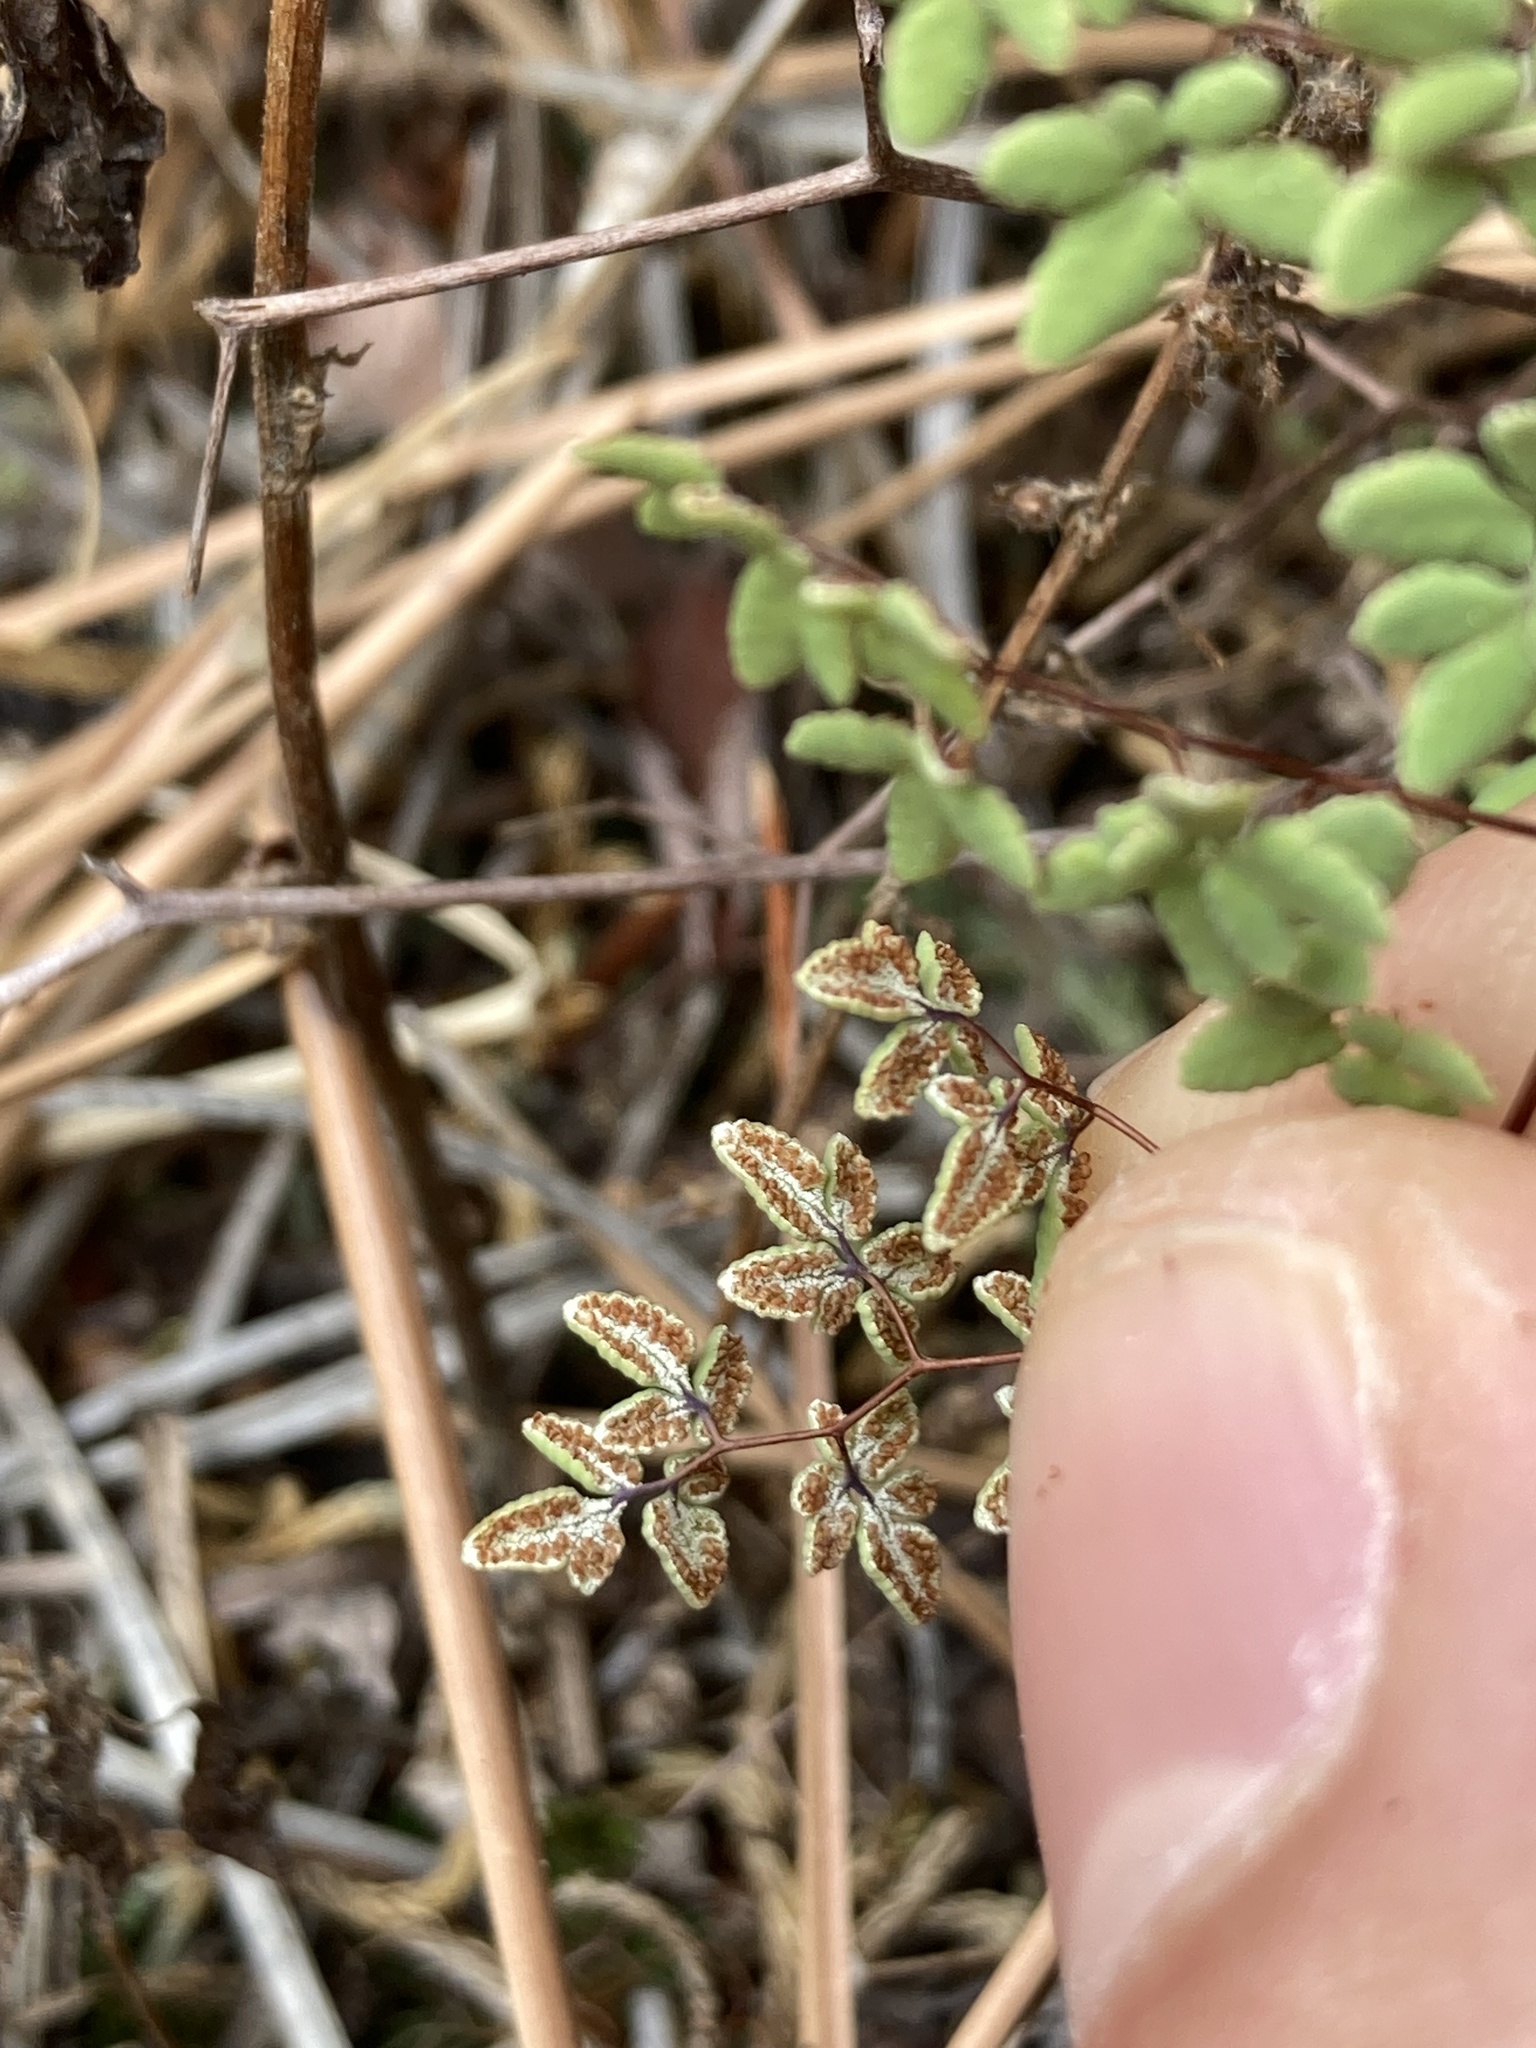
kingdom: Plantae
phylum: Tracheophyta
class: Polypodiopsida
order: Polypodiales
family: Pteridaceae
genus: Argyrochosma
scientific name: Argyrochosma fendleri
